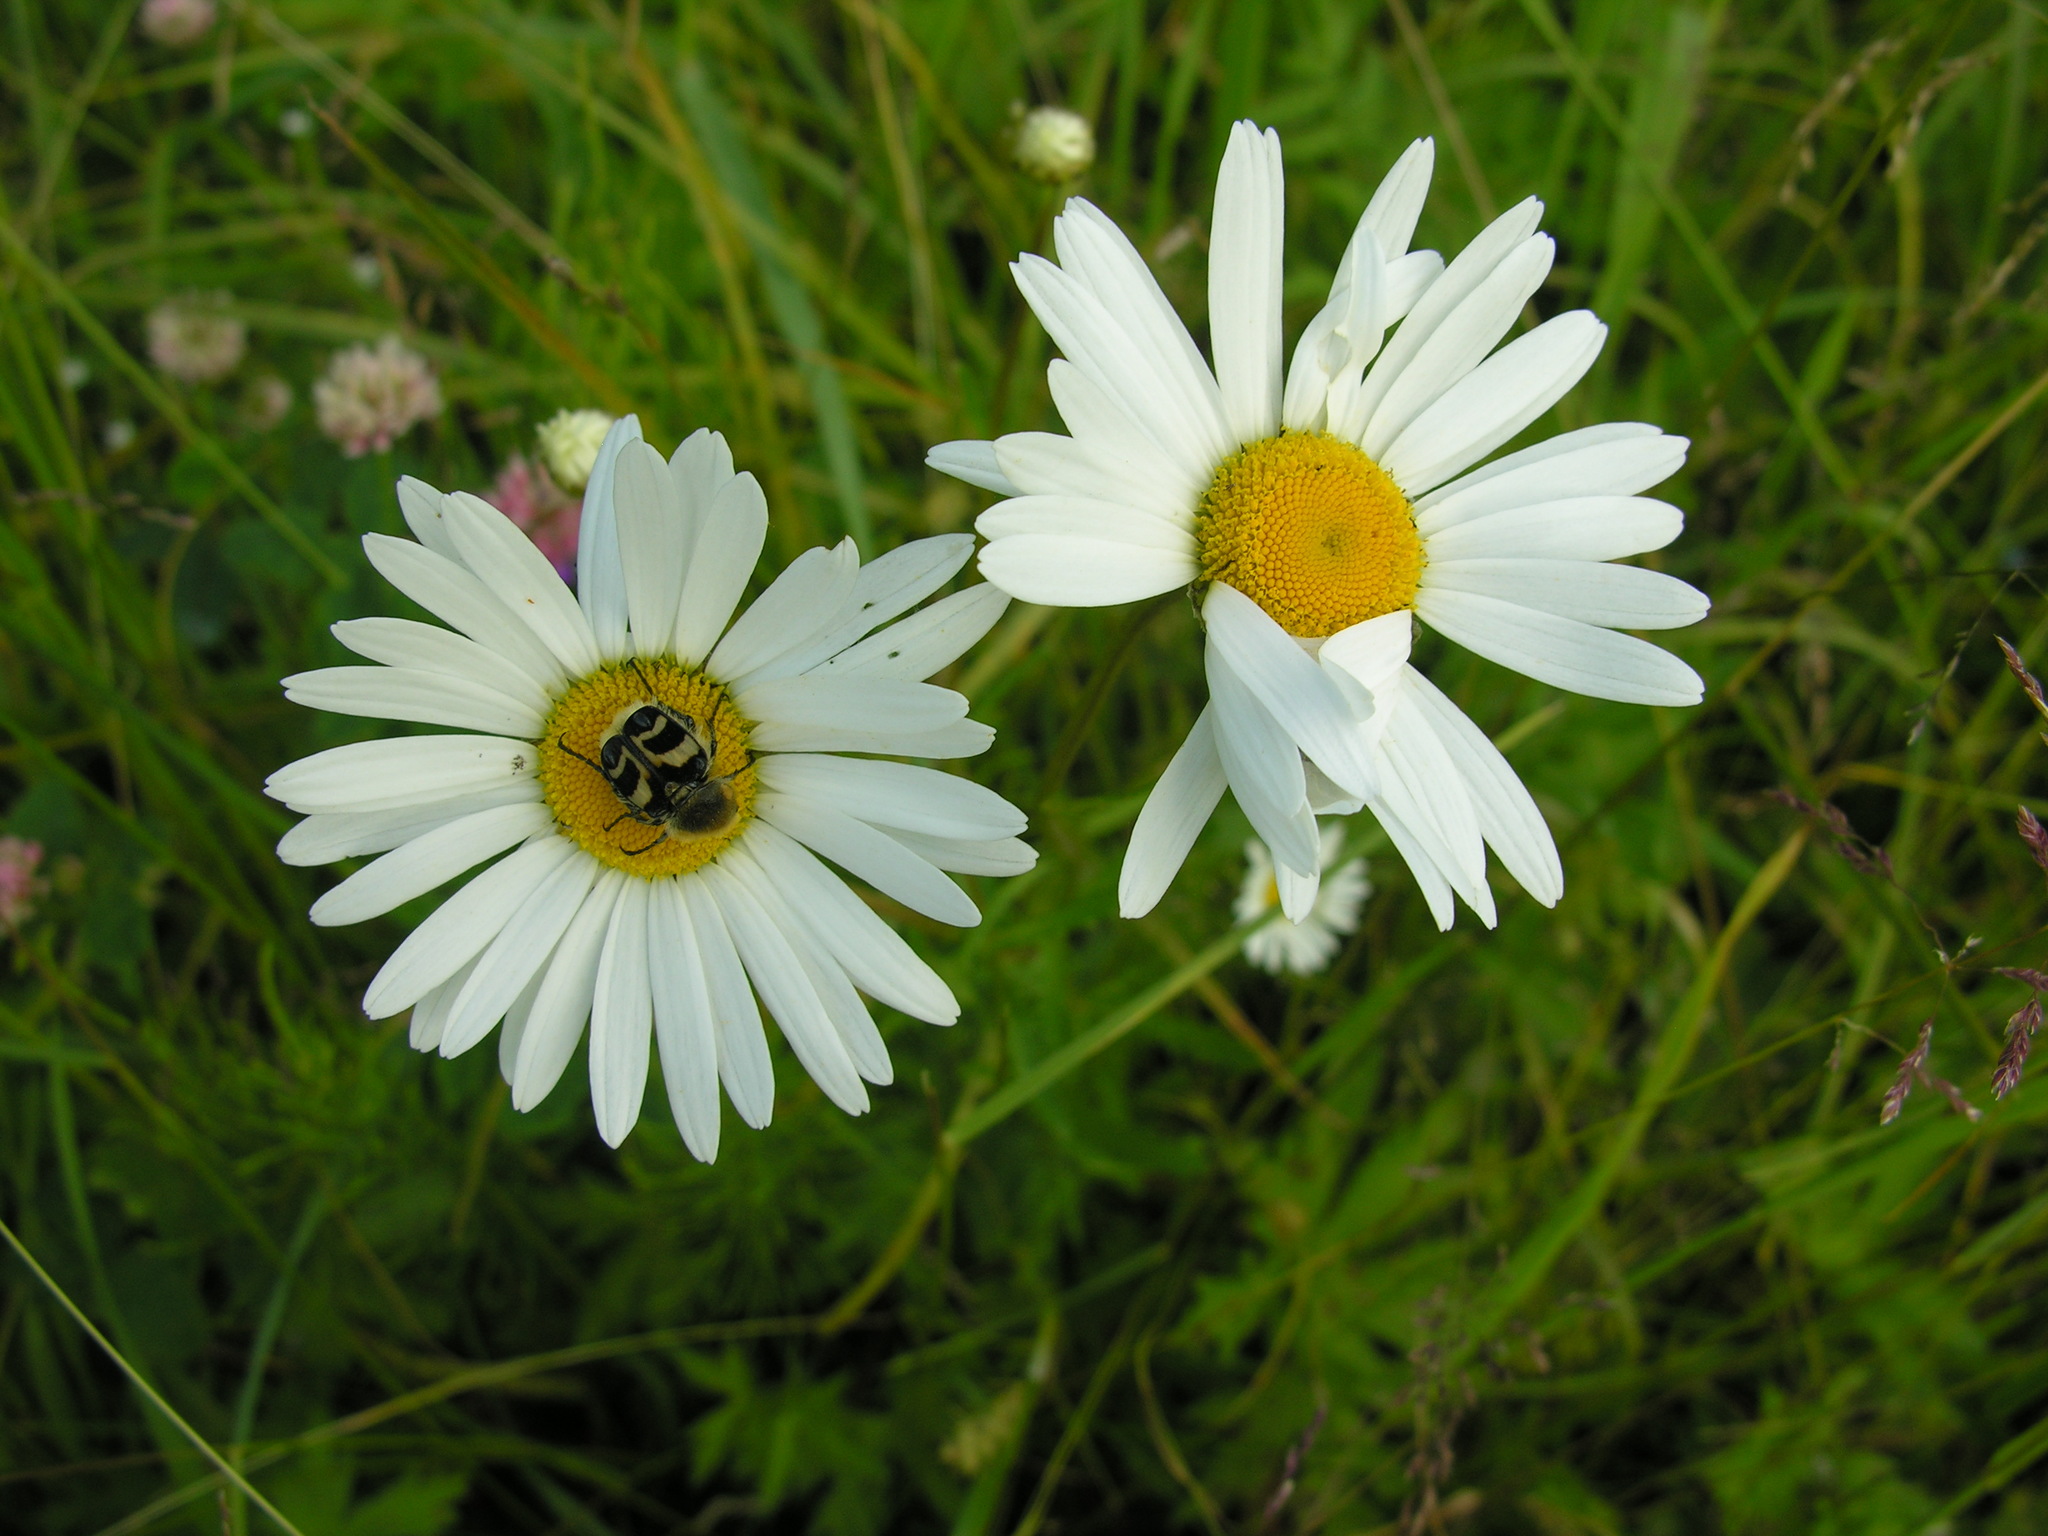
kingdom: Animalia
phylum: Arthropoda
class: Insecta
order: Coleoptera
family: Scarabaeidae
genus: Trichius
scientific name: Trichius fasciatus
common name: Bee beetle
